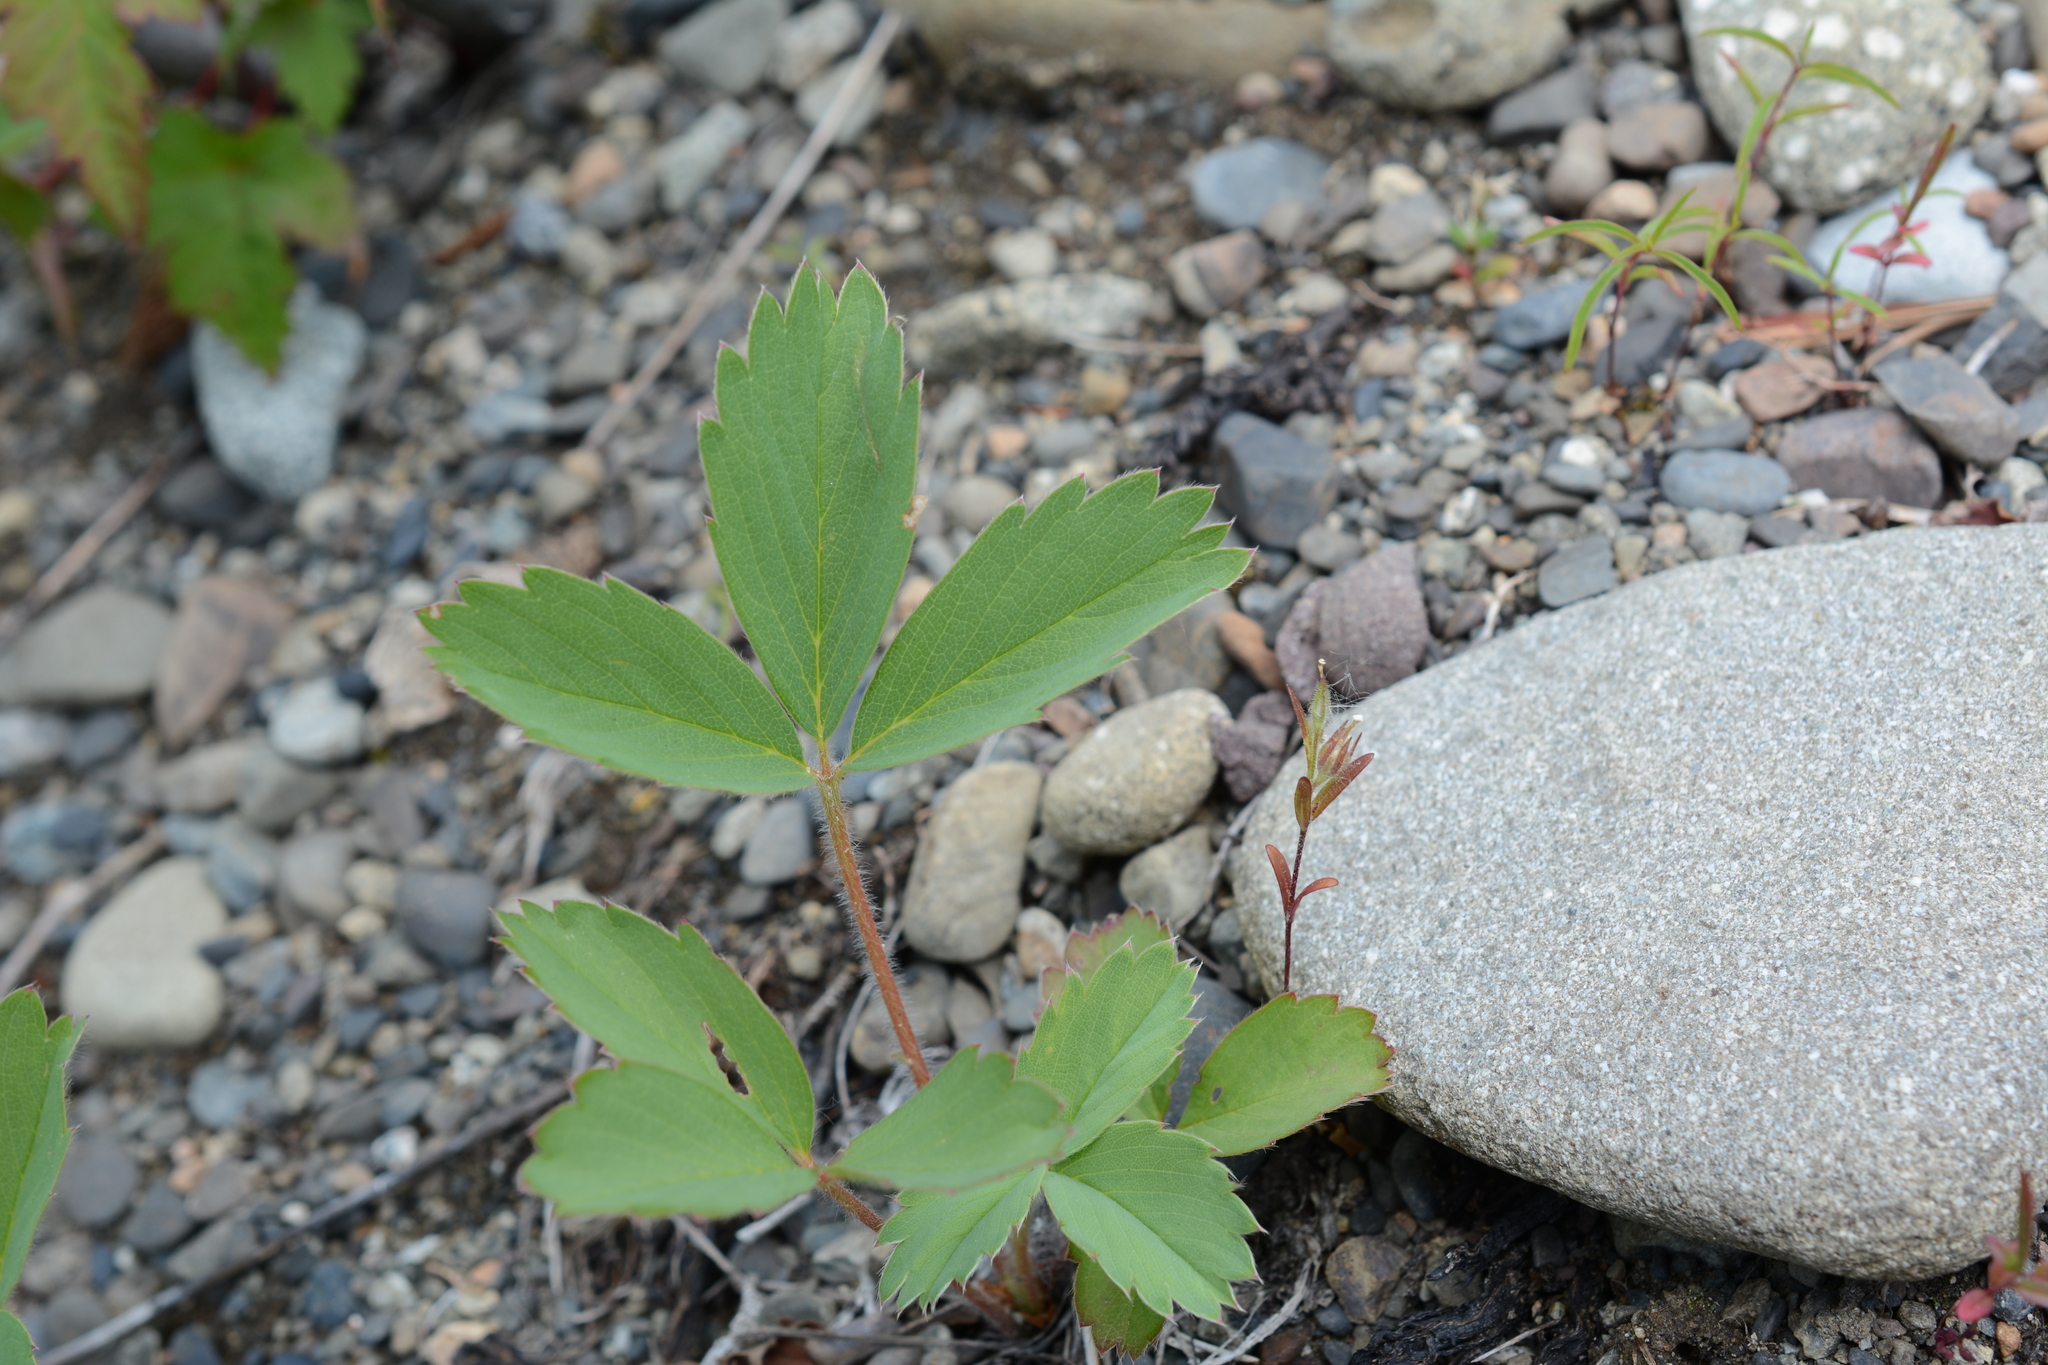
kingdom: Plantae
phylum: Tracheophyta
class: Magnoliopsida
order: Rosales
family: Rosaceae
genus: Fragaria
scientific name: Fragaria virginiana
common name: Thickleaved wild strawberry
